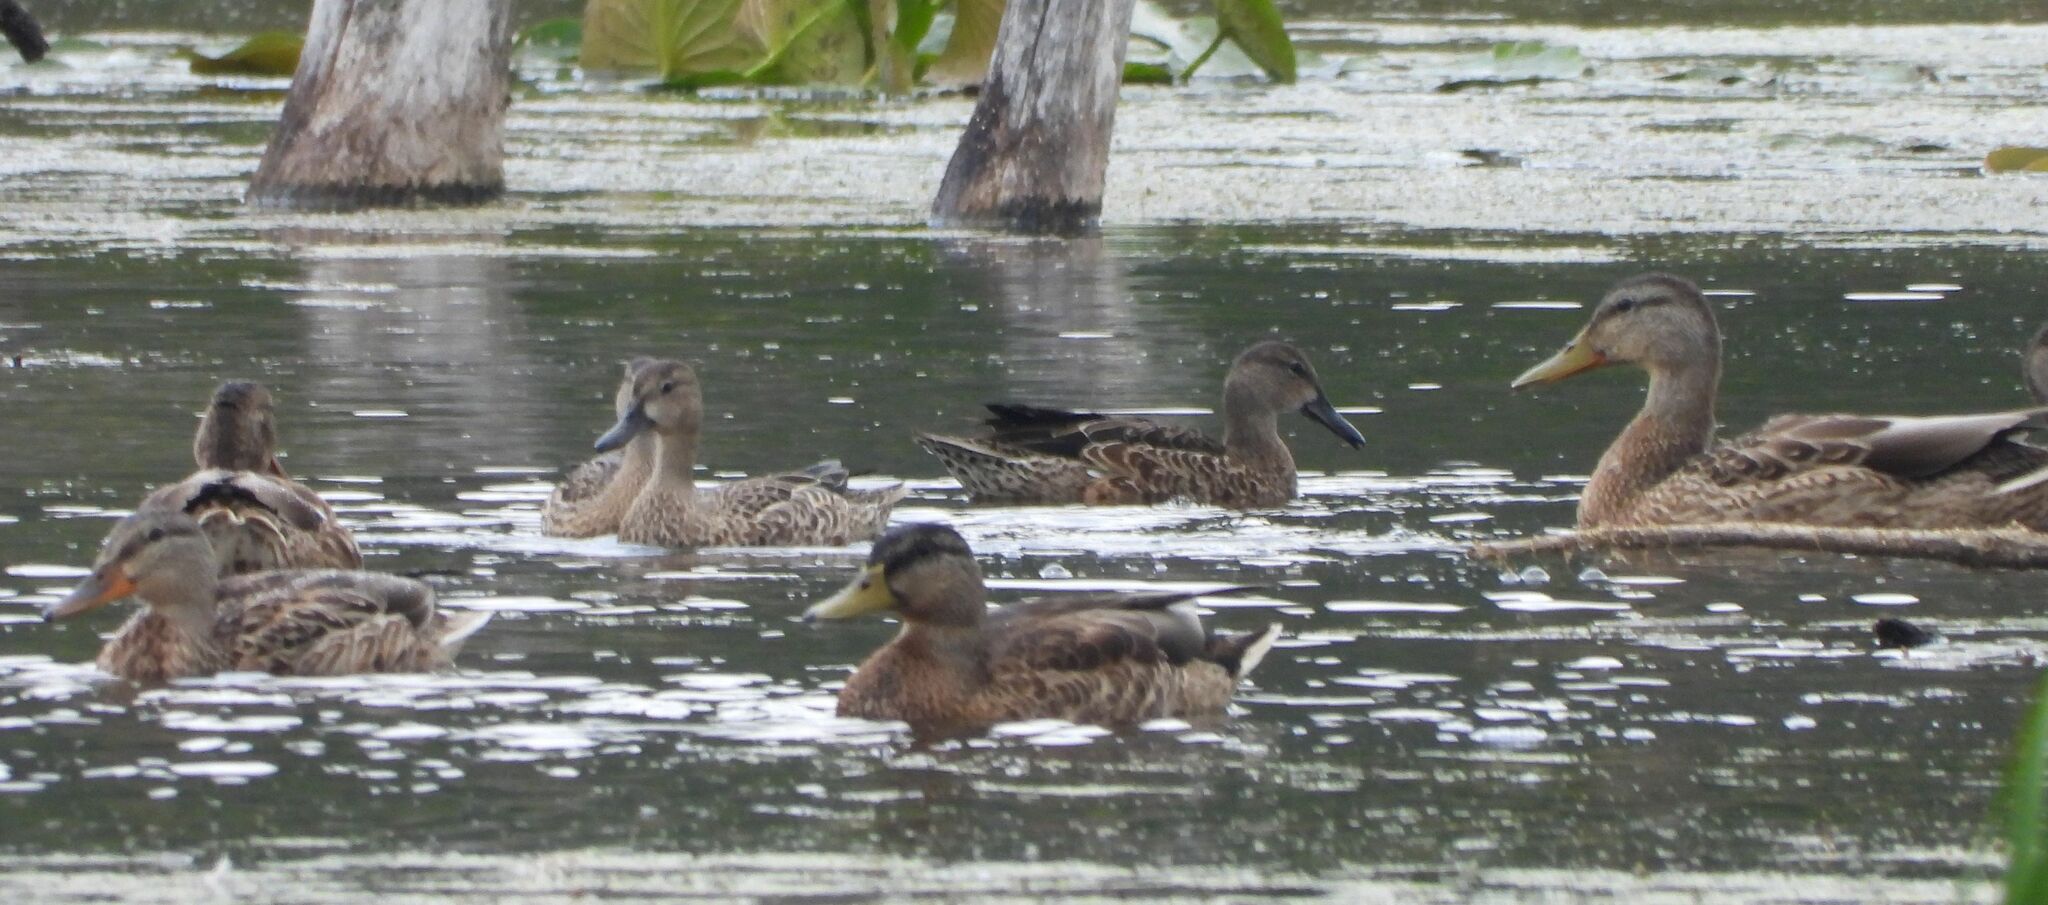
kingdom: Animalia
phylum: Chordata
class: Aves
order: Anseriformes
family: Anatidae
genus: Spatula
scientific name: Spatula discors
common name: Blue-winged teal
